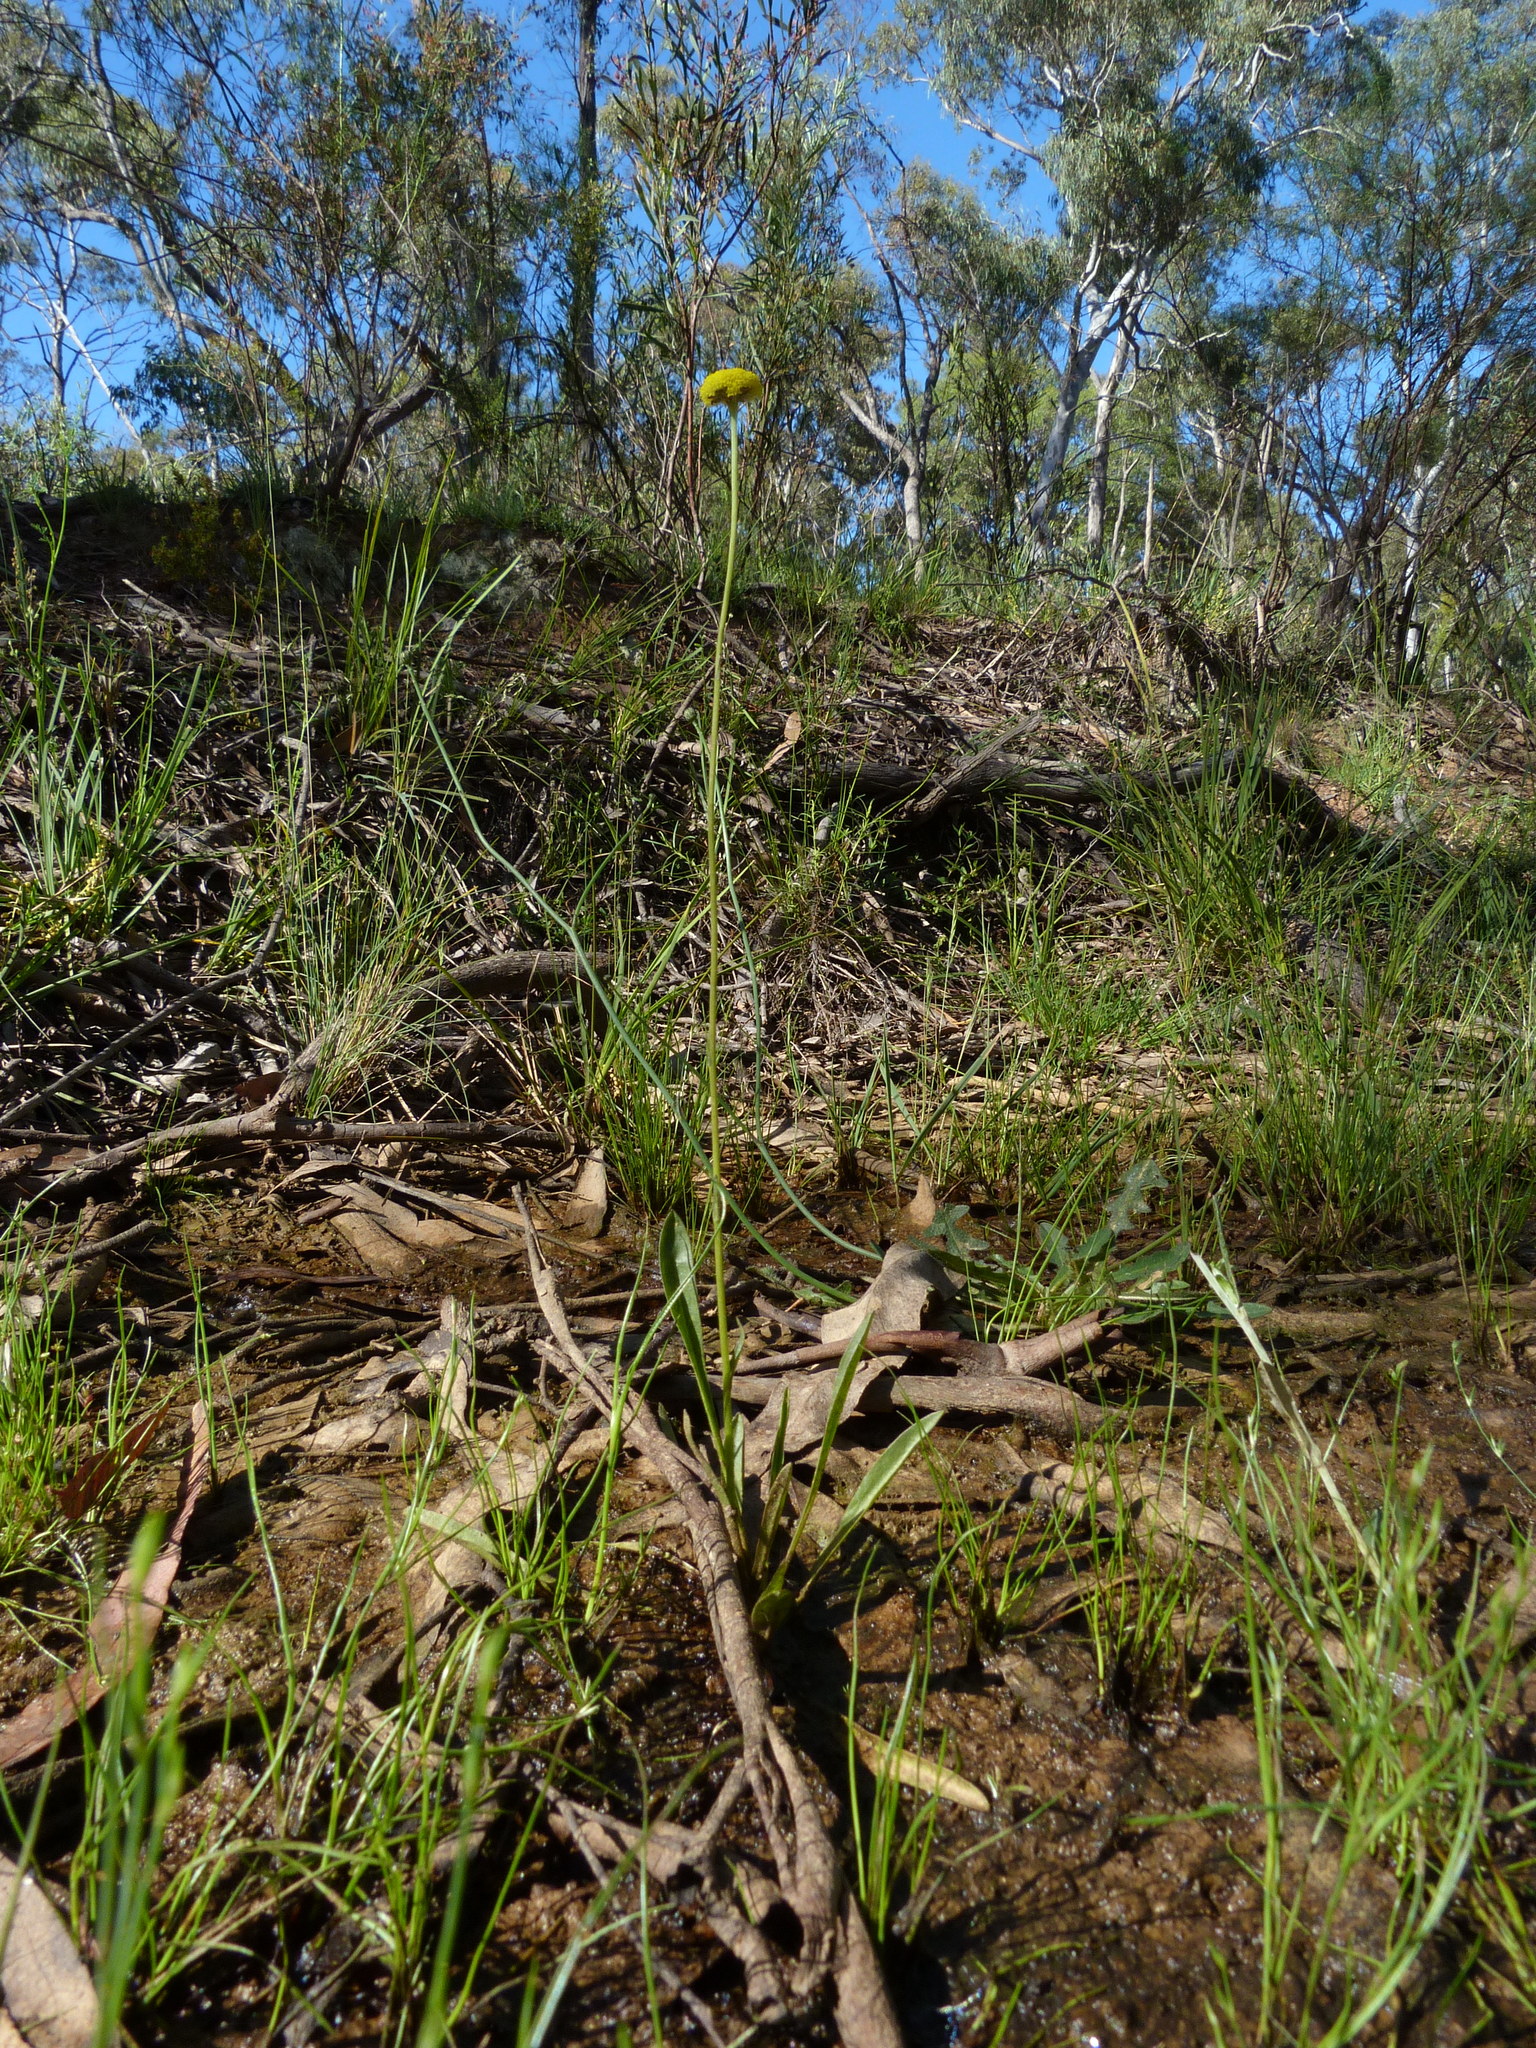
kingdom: Plantae
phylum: Tracheophyta
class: Magnoliopsida
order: Asterales
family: Asteraceae
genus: Craspedia
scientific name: Craspedia variabilis
